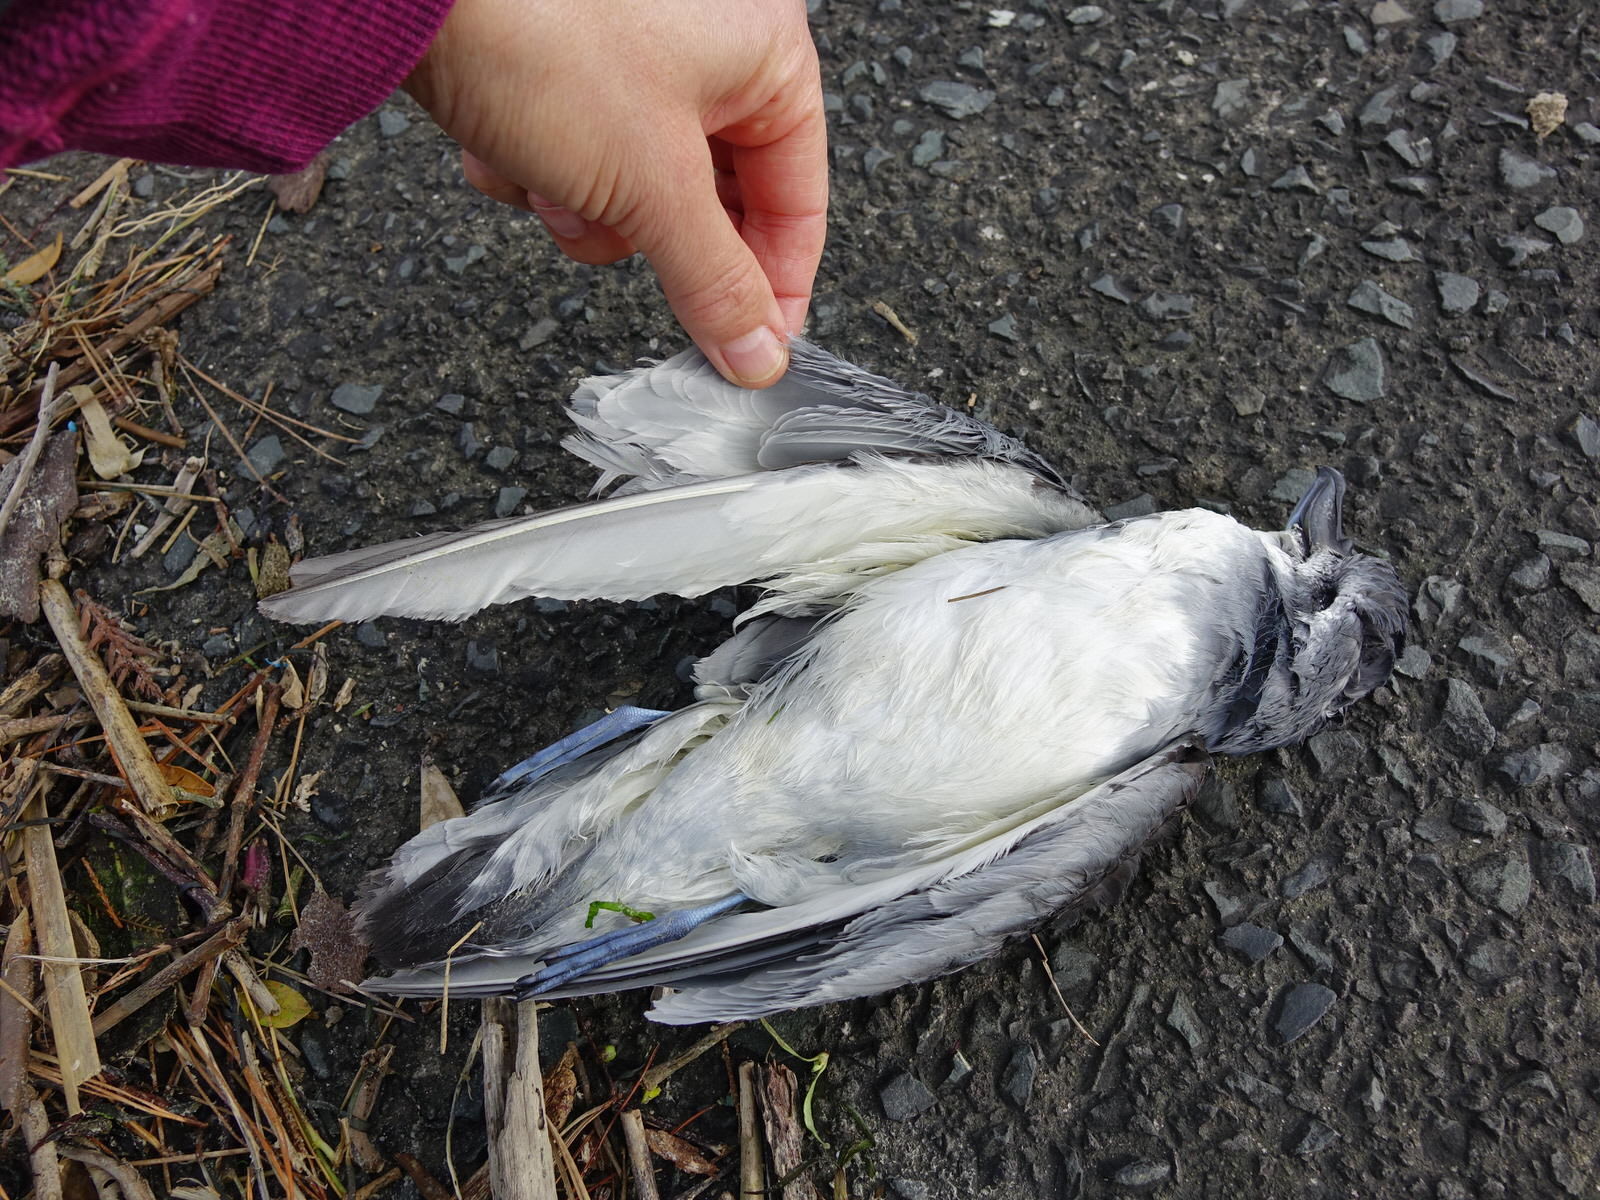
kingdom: Animalia
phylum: Chordata
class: Aves
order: Procellariiformes
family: Procellariidae
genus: Pachyptila
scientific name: Pachyptila vittata
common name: Broad-billed prion
